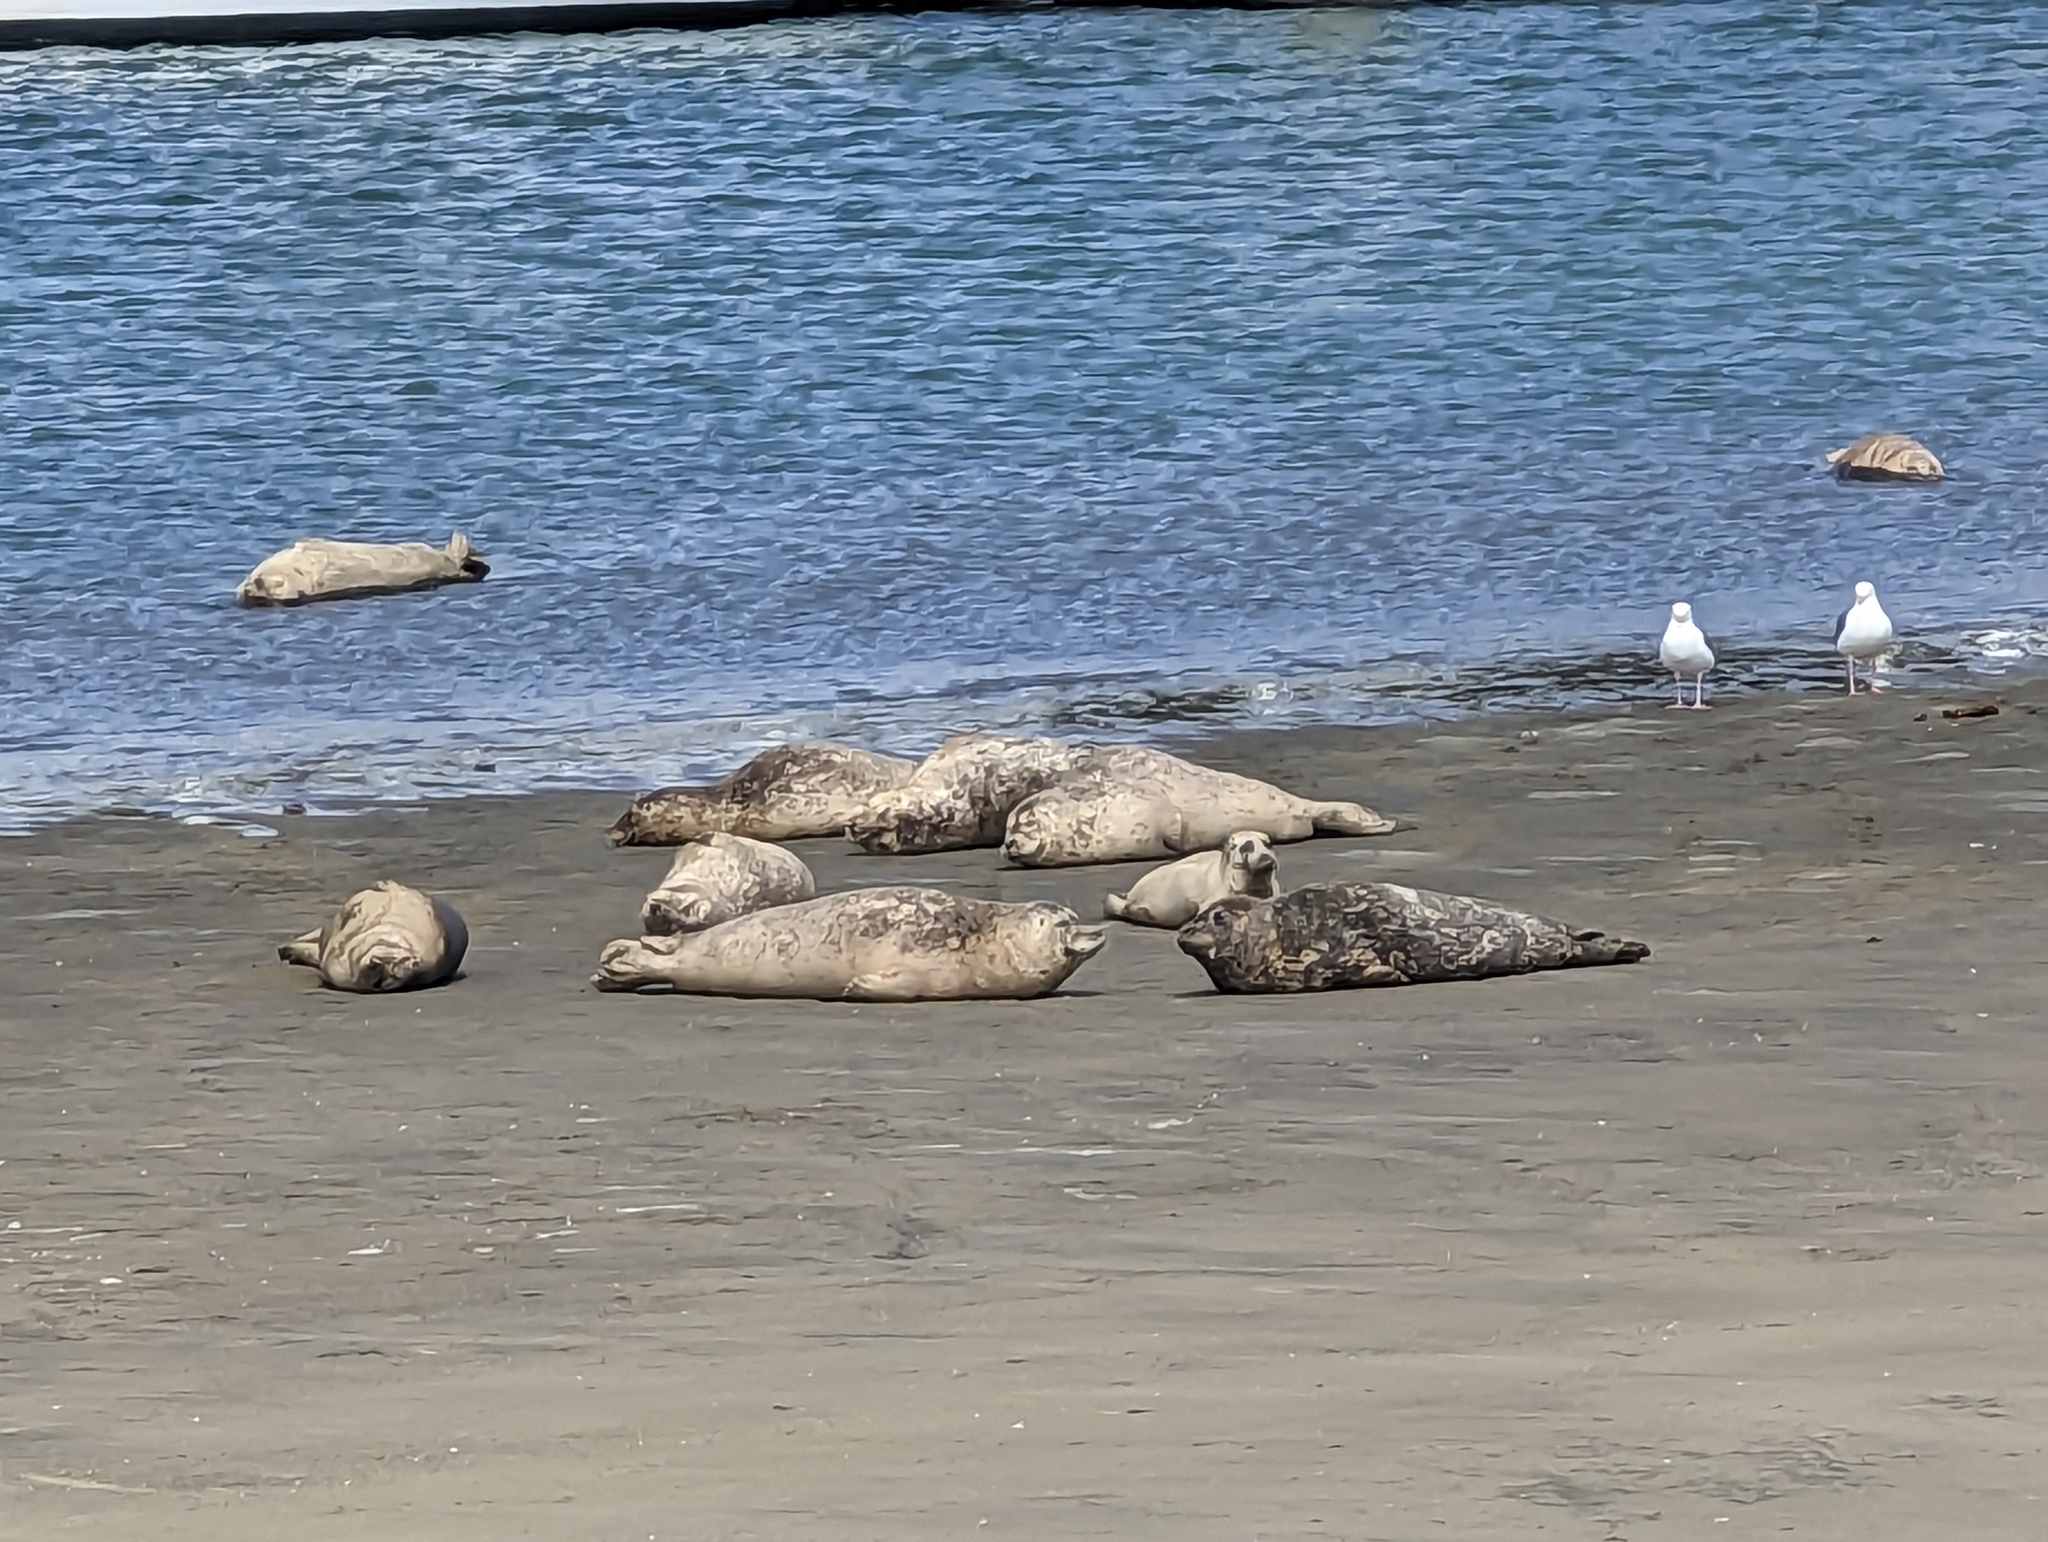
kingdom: Animalia
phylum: Chordata
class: Mammalia
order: Carnivora
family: Phocidae
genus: Phoca
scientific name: Phoca vitulina
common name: Harbor seal
